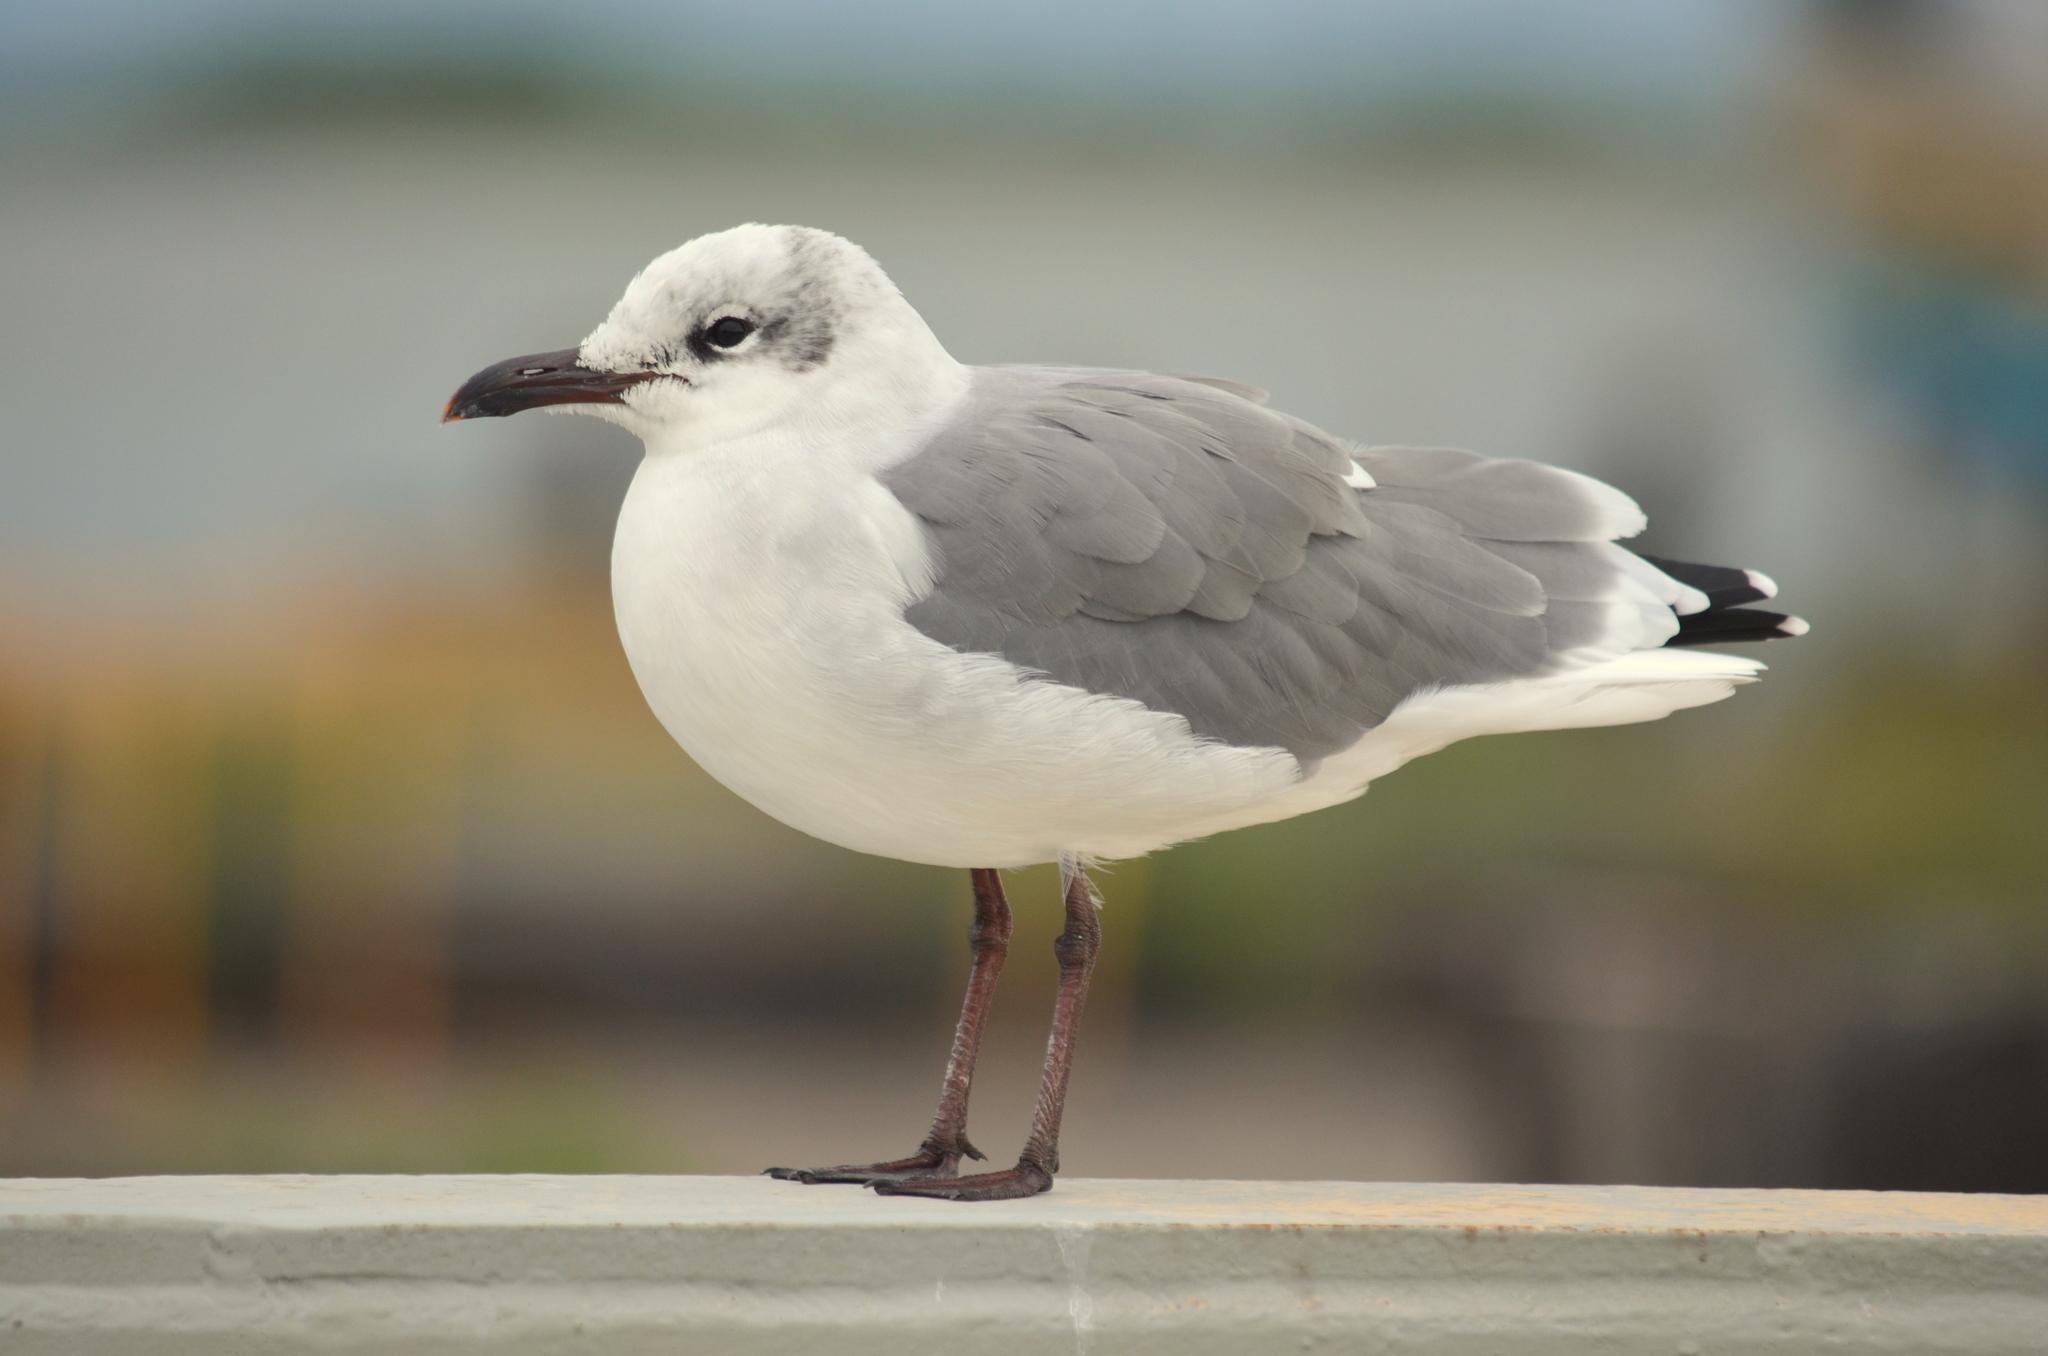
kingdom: Animalia
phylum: Chordata
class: Aves
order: Charadriiformes
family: Laridae
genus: Leucophaeus
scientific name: Leucophaeus atricilla
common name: Laughing gull
